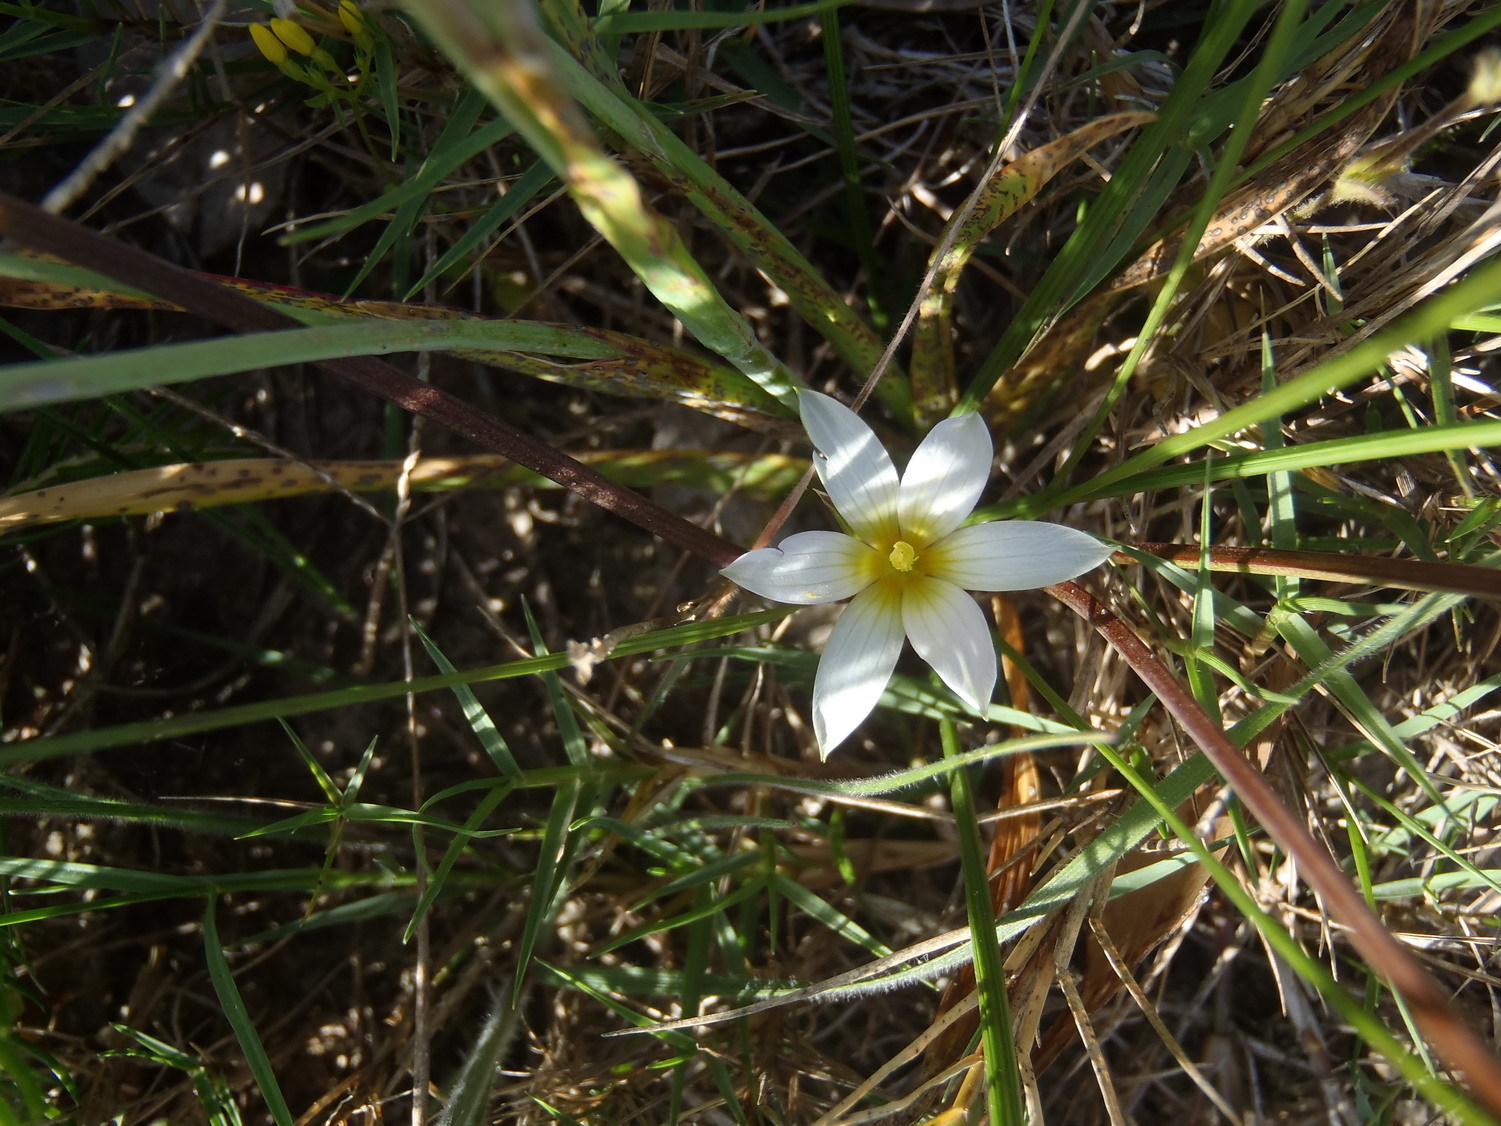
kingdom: Plantae
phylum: Tracheophyta
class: Liliopsida
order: Asparagales
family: Iridaceae
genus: Romulea
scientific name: Romulea flava
